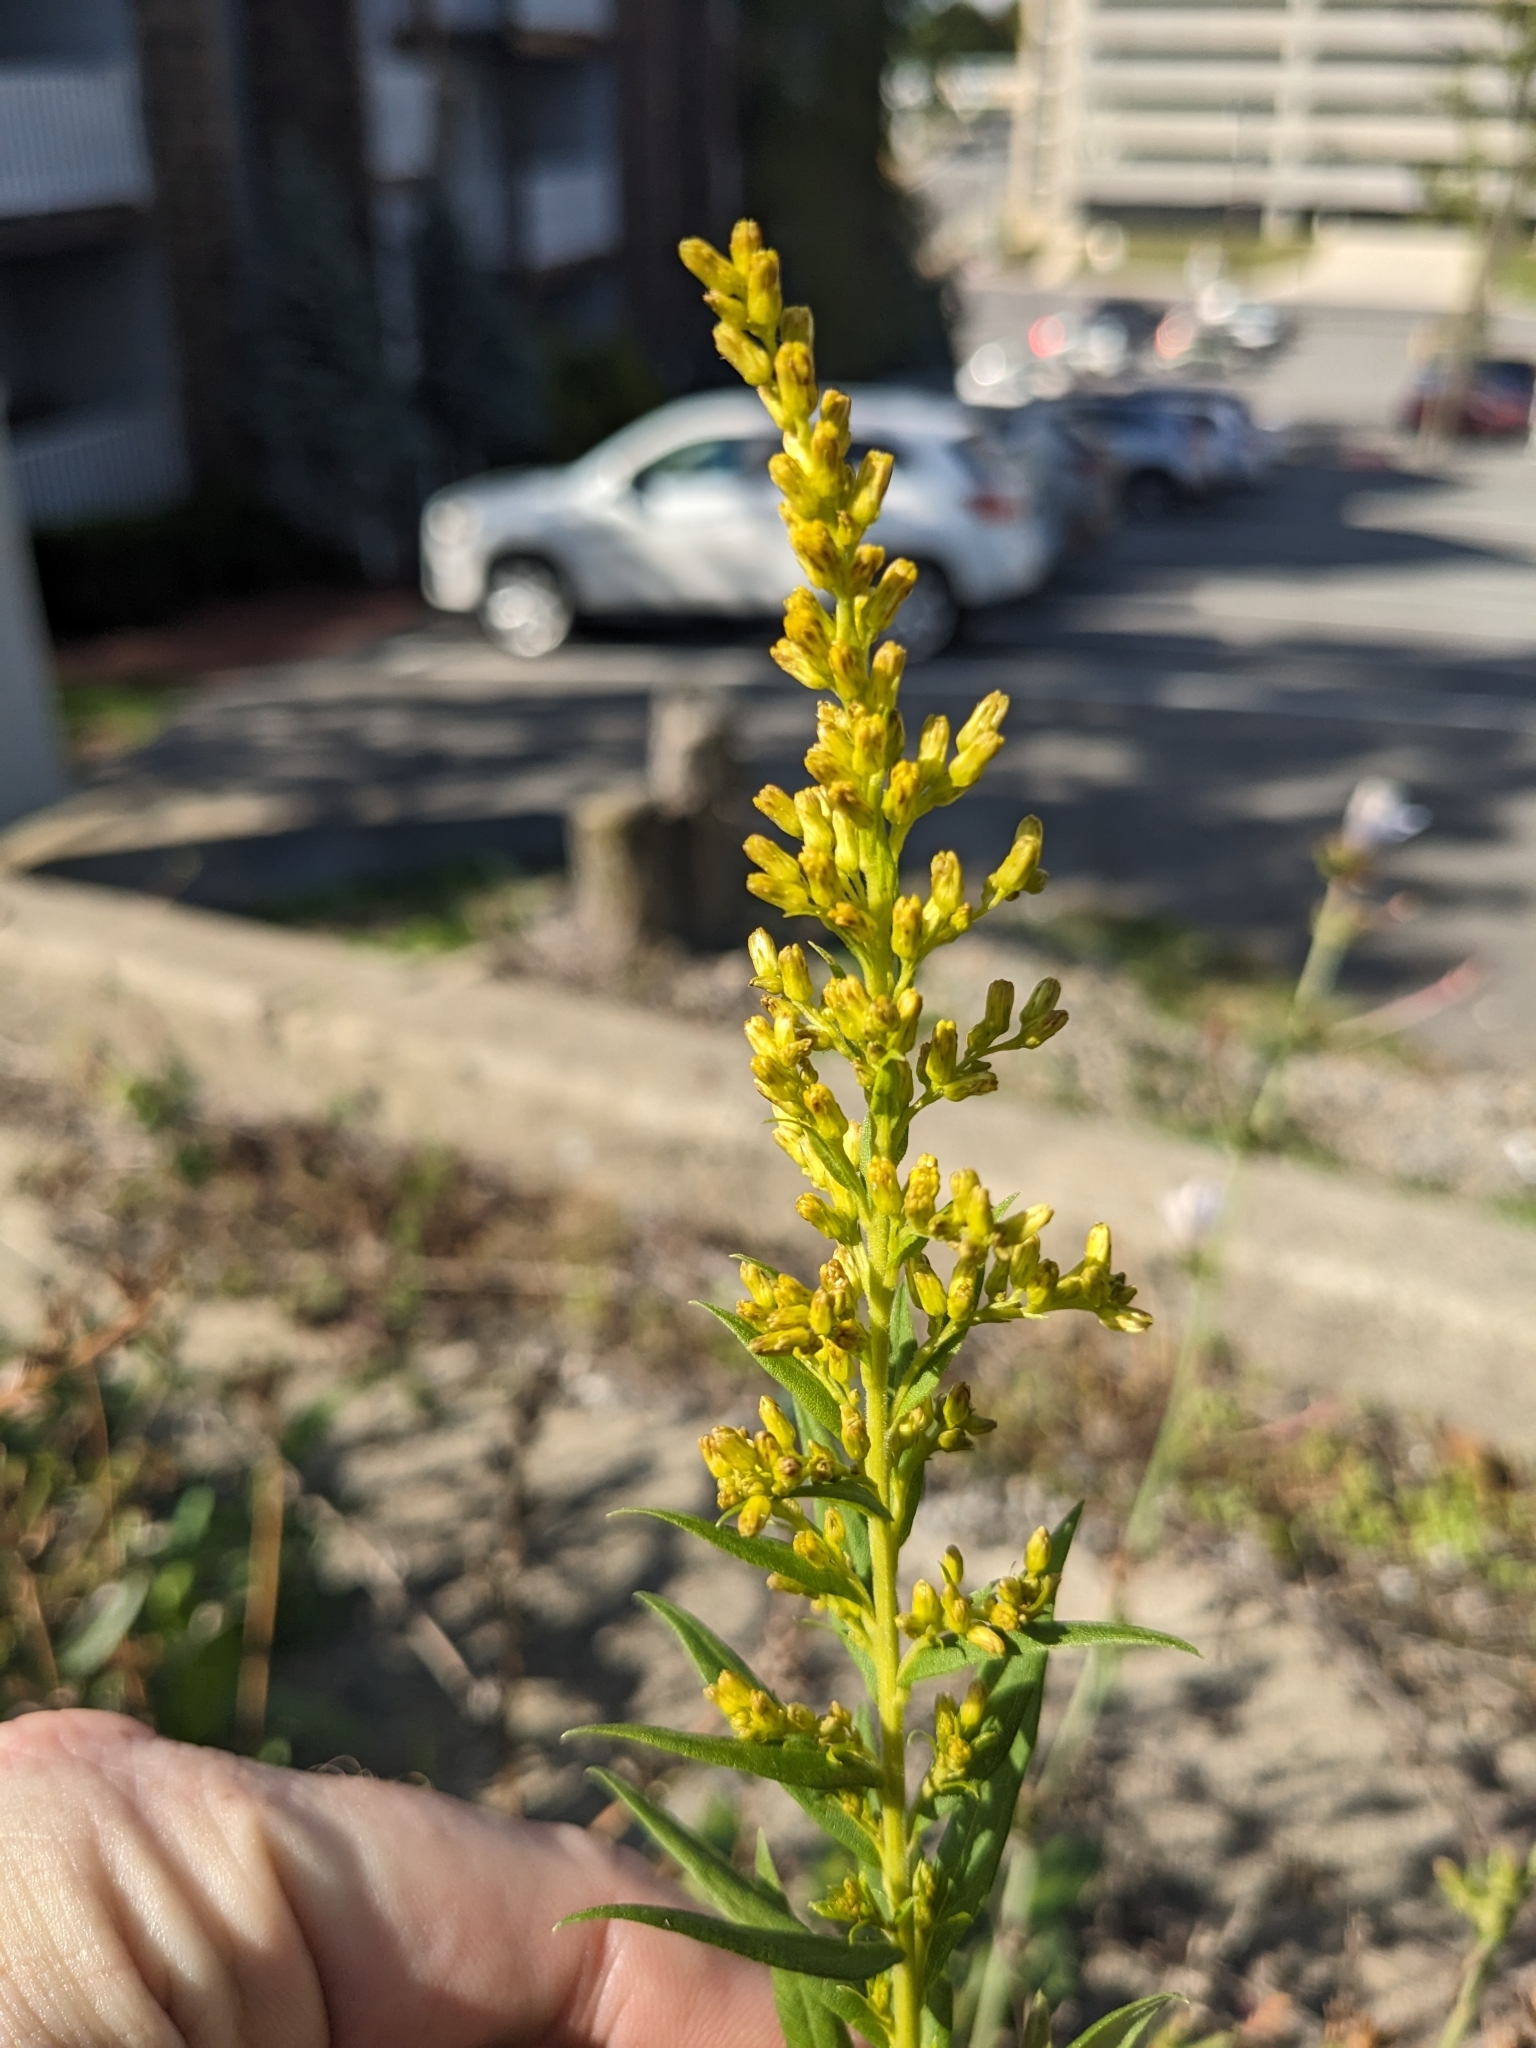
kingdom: Plantae
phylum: Tracheophyta
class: Magnoliopsida
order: Asterales
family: Asteraceae
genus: Solidago
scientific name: Solidago altissima
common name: Late goldenrod
